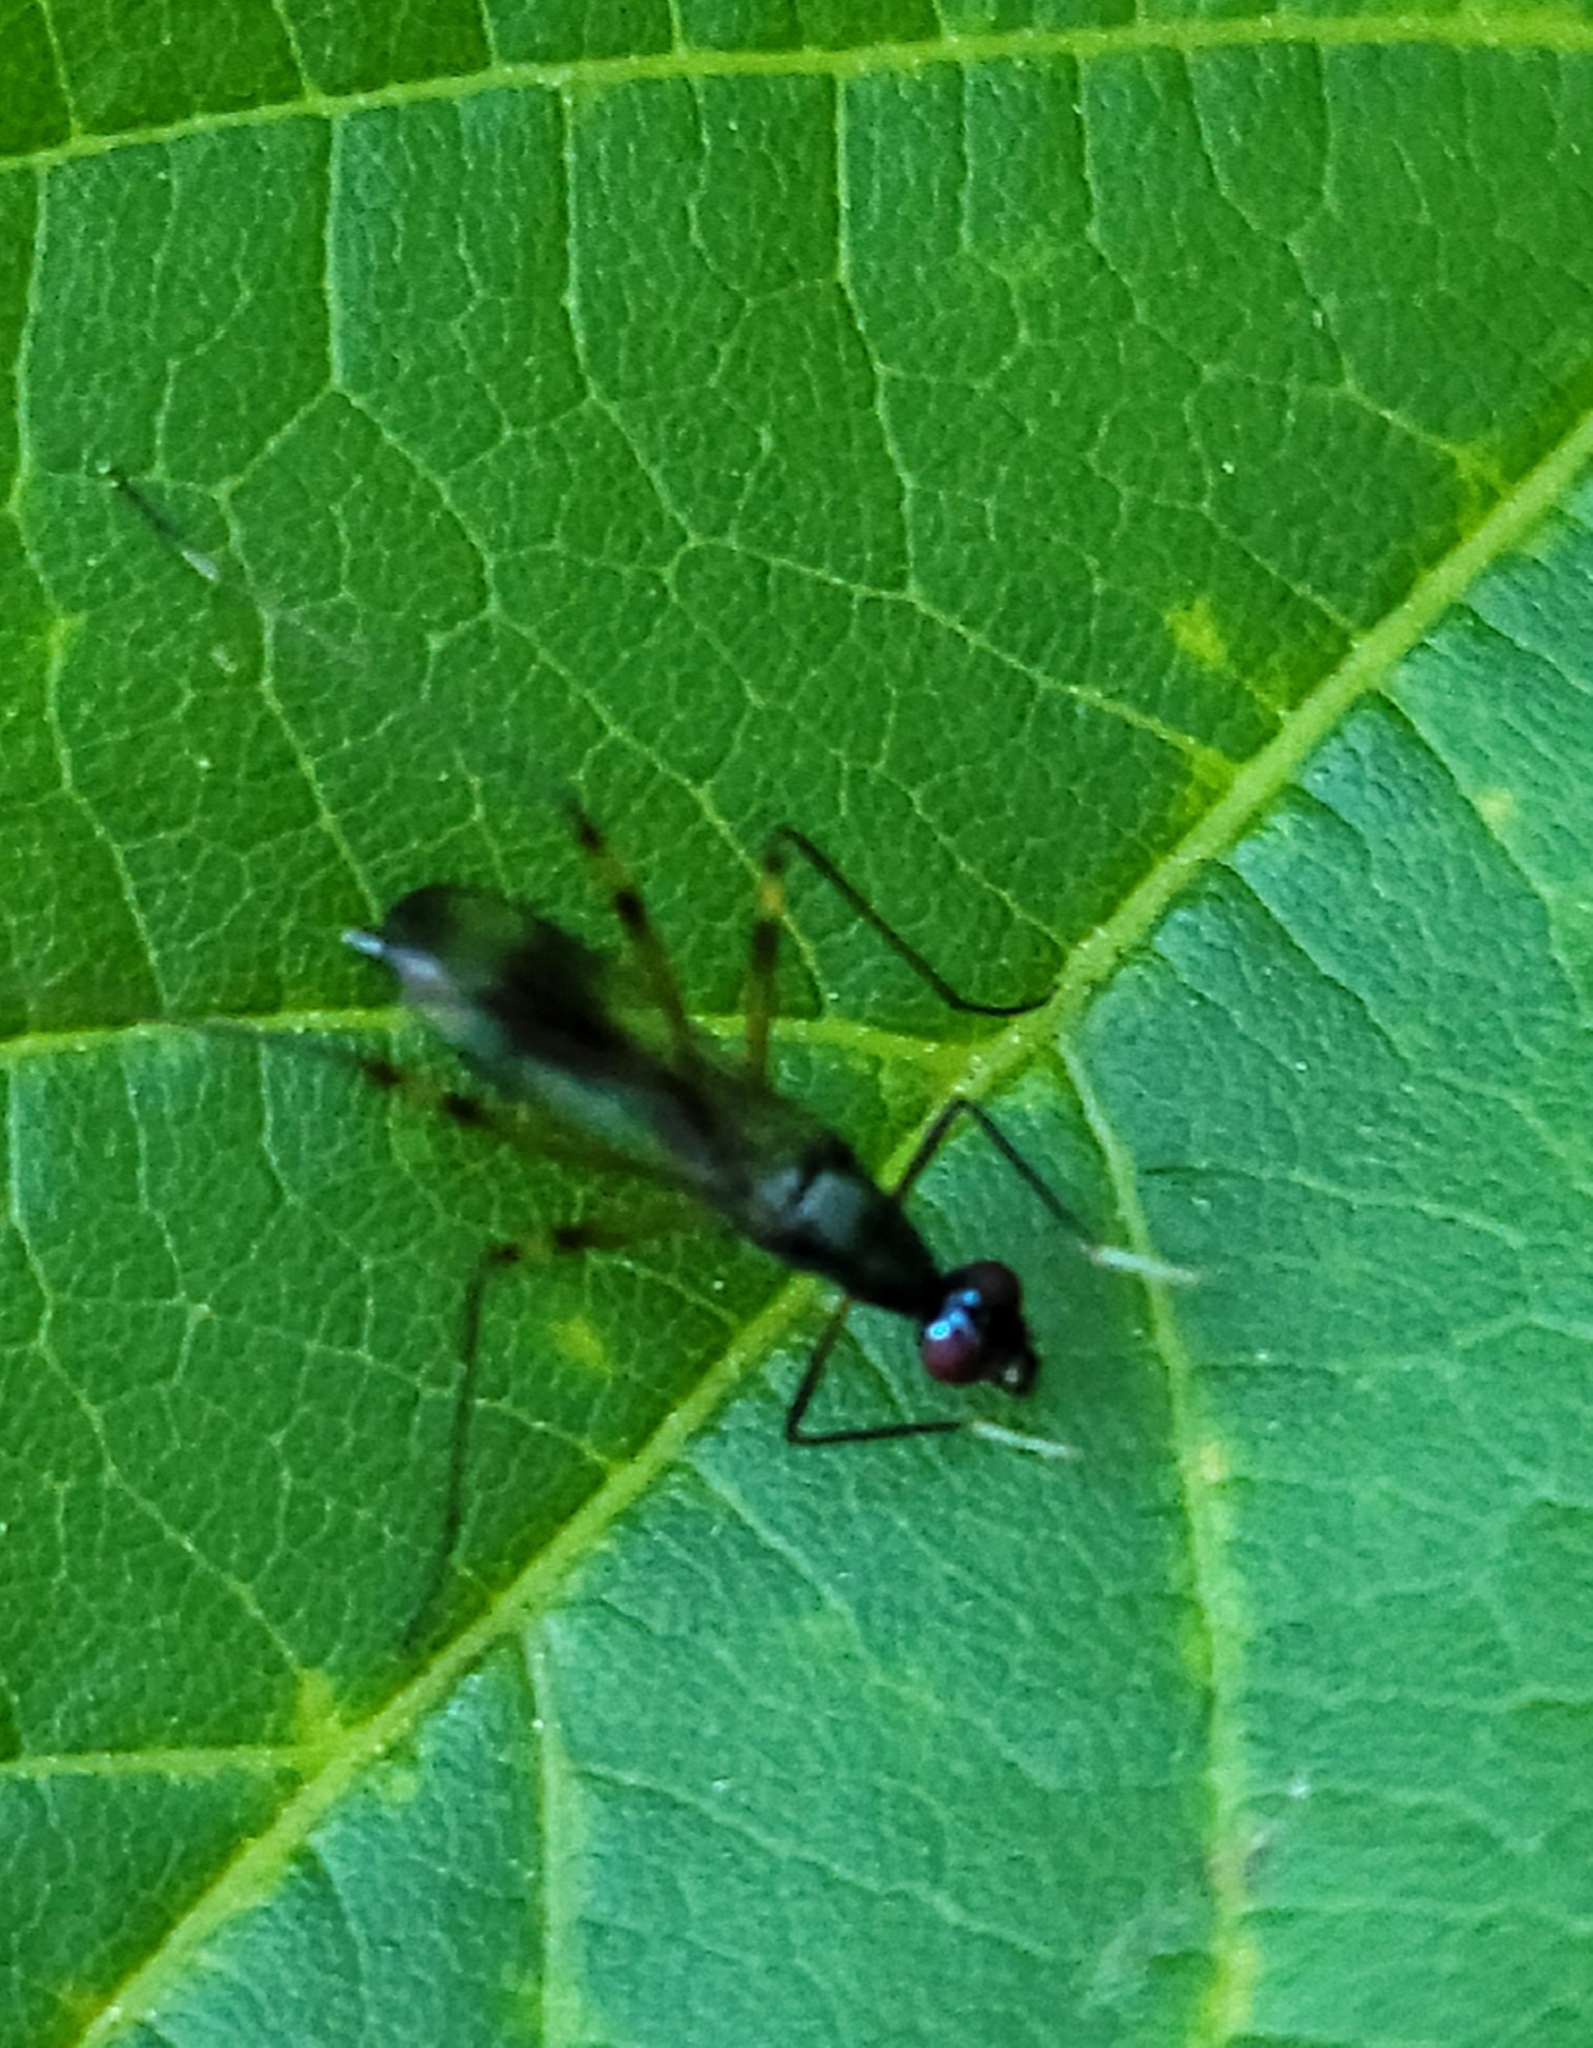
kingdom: Animalia
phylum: Arthropoda
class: Insecta
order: Diptera
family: Micropezidae
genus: Rainieria
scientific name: Rainieria antennaepes
